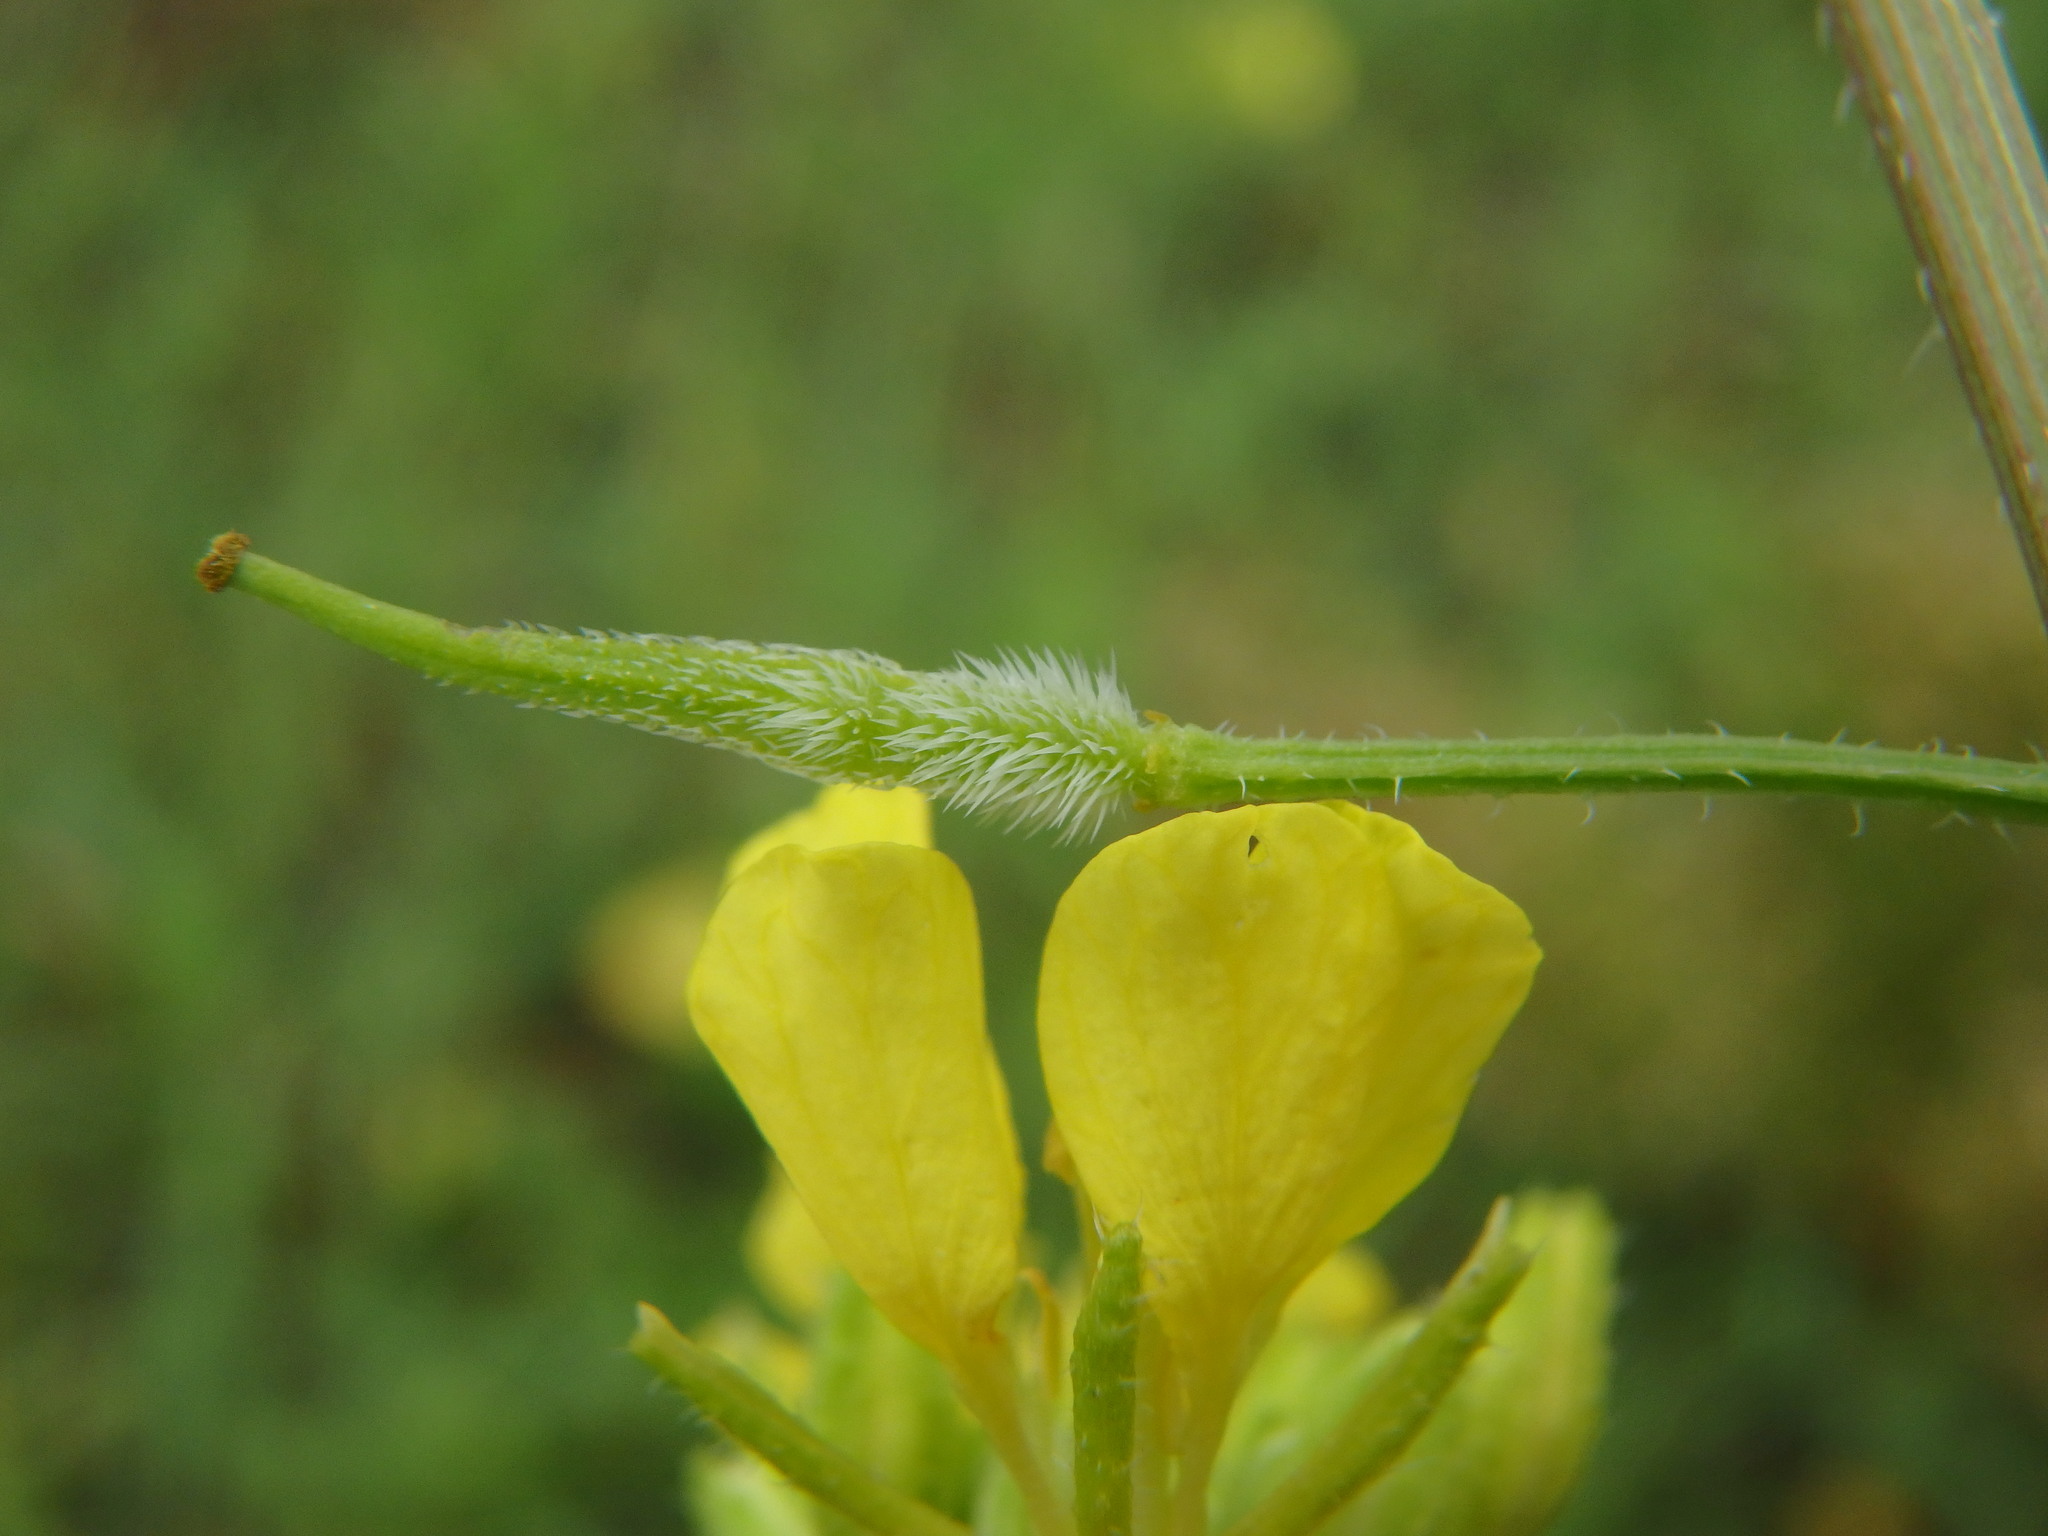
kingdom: Plantae
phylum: Tracheophyta
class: Magnoliopsida
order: Brassicales
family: Brassicaceae
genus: Sinapis
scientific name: Sinapis alba
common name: White mustard
